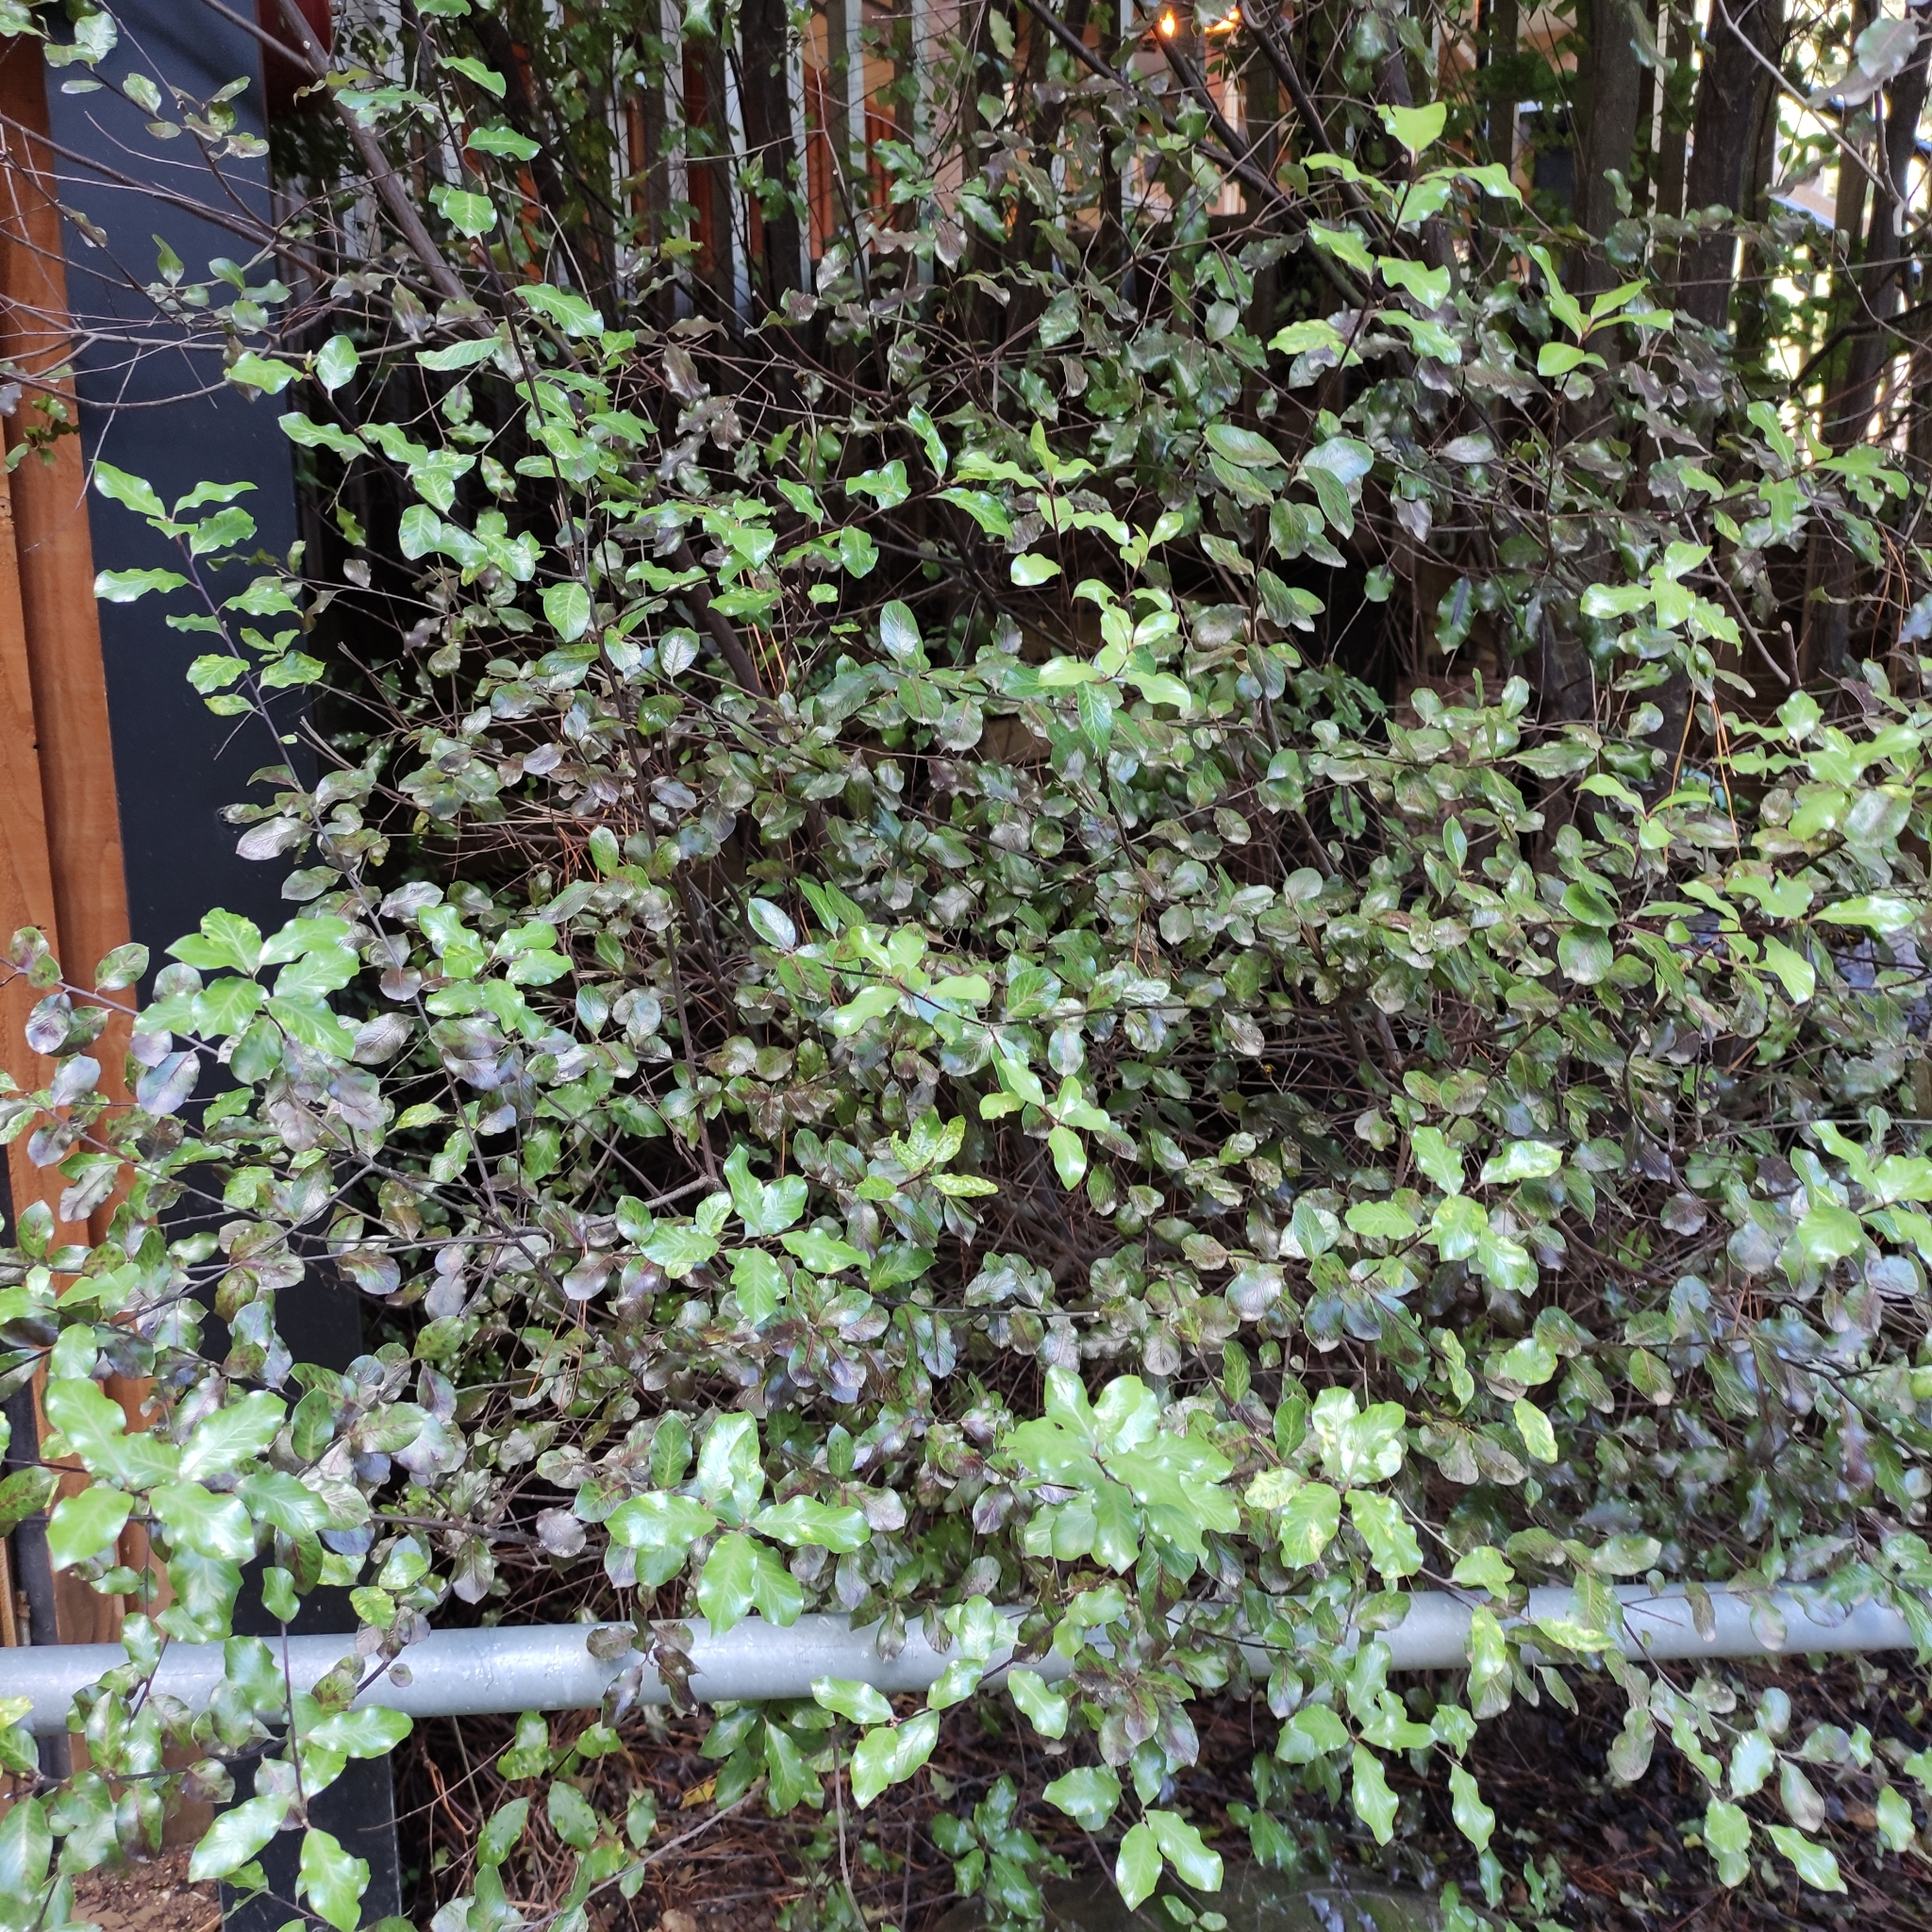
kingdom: Plantae
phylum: Tracheophyta
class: Magnoliopsida
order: Apiales
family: Pittosporaceae
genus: Pittosporum
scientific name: Pittosporum tenuifolium
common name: Kohuhu
